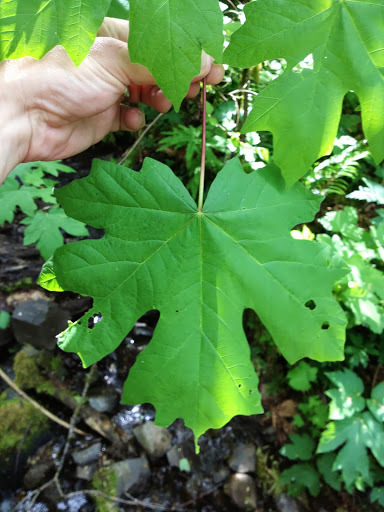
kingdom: Plantae
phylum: Tracheophyta
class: Magnoliopsida
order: Sapindales
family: Sapindaceae
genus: Acer
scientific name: Acer macrophyllum
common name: Oregon maple
